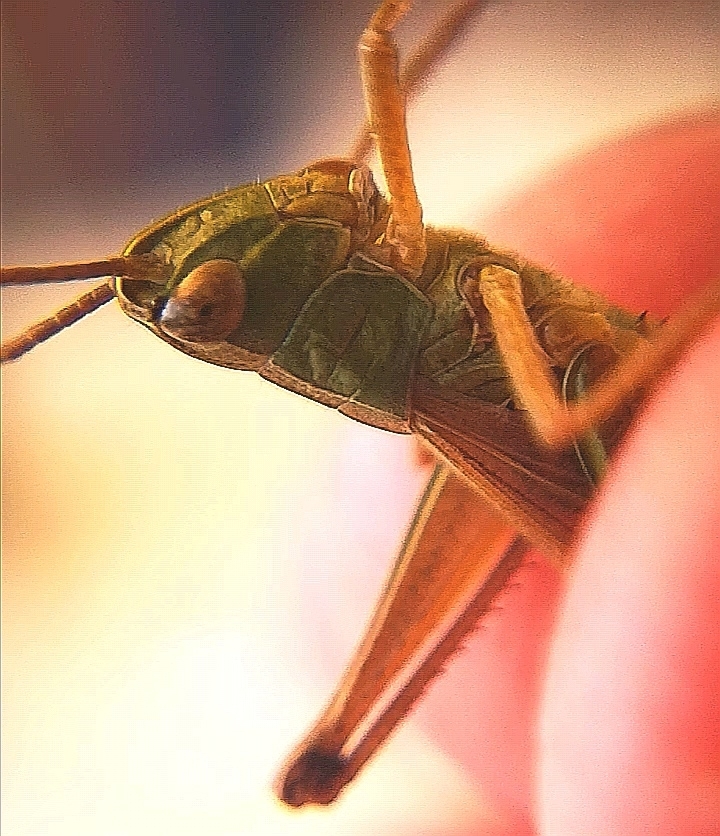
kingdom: Animalia
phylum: Arthropoda
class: Insecta
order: Orthoptera
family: Acrididae
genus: Pseudochorthippus
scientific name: Pseudochorthippus parallelus
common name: Meadow grasshopper
